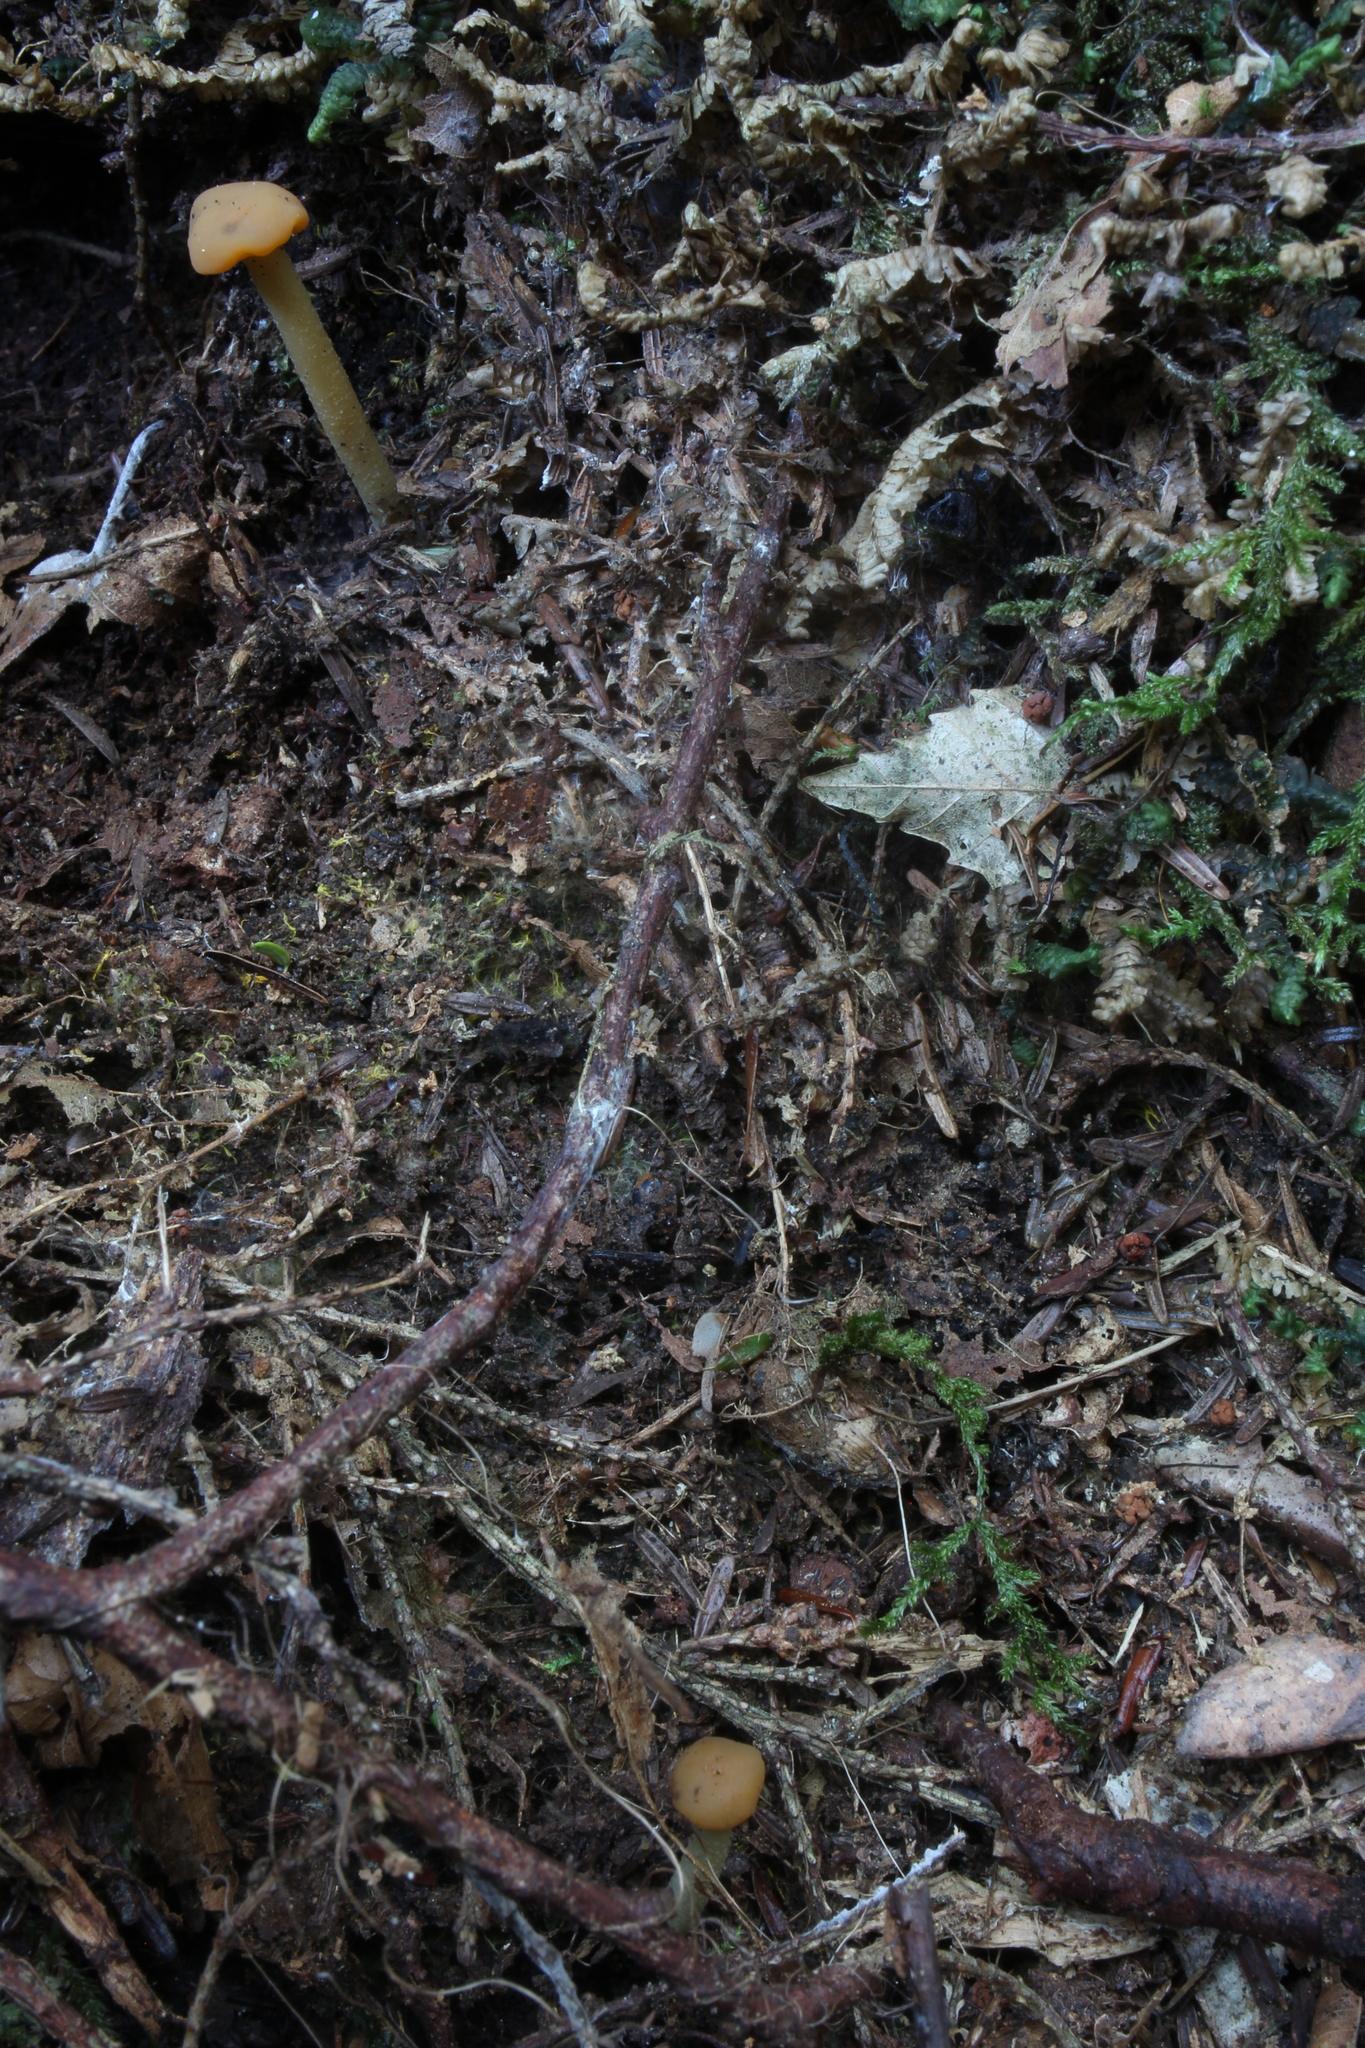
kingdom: Fungi
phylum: Ascomycota
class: Leotiomycetes
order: Leotiales
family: Leotiaceae
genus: Leotia
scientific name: Leotia lubrica
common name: Jellybaby
